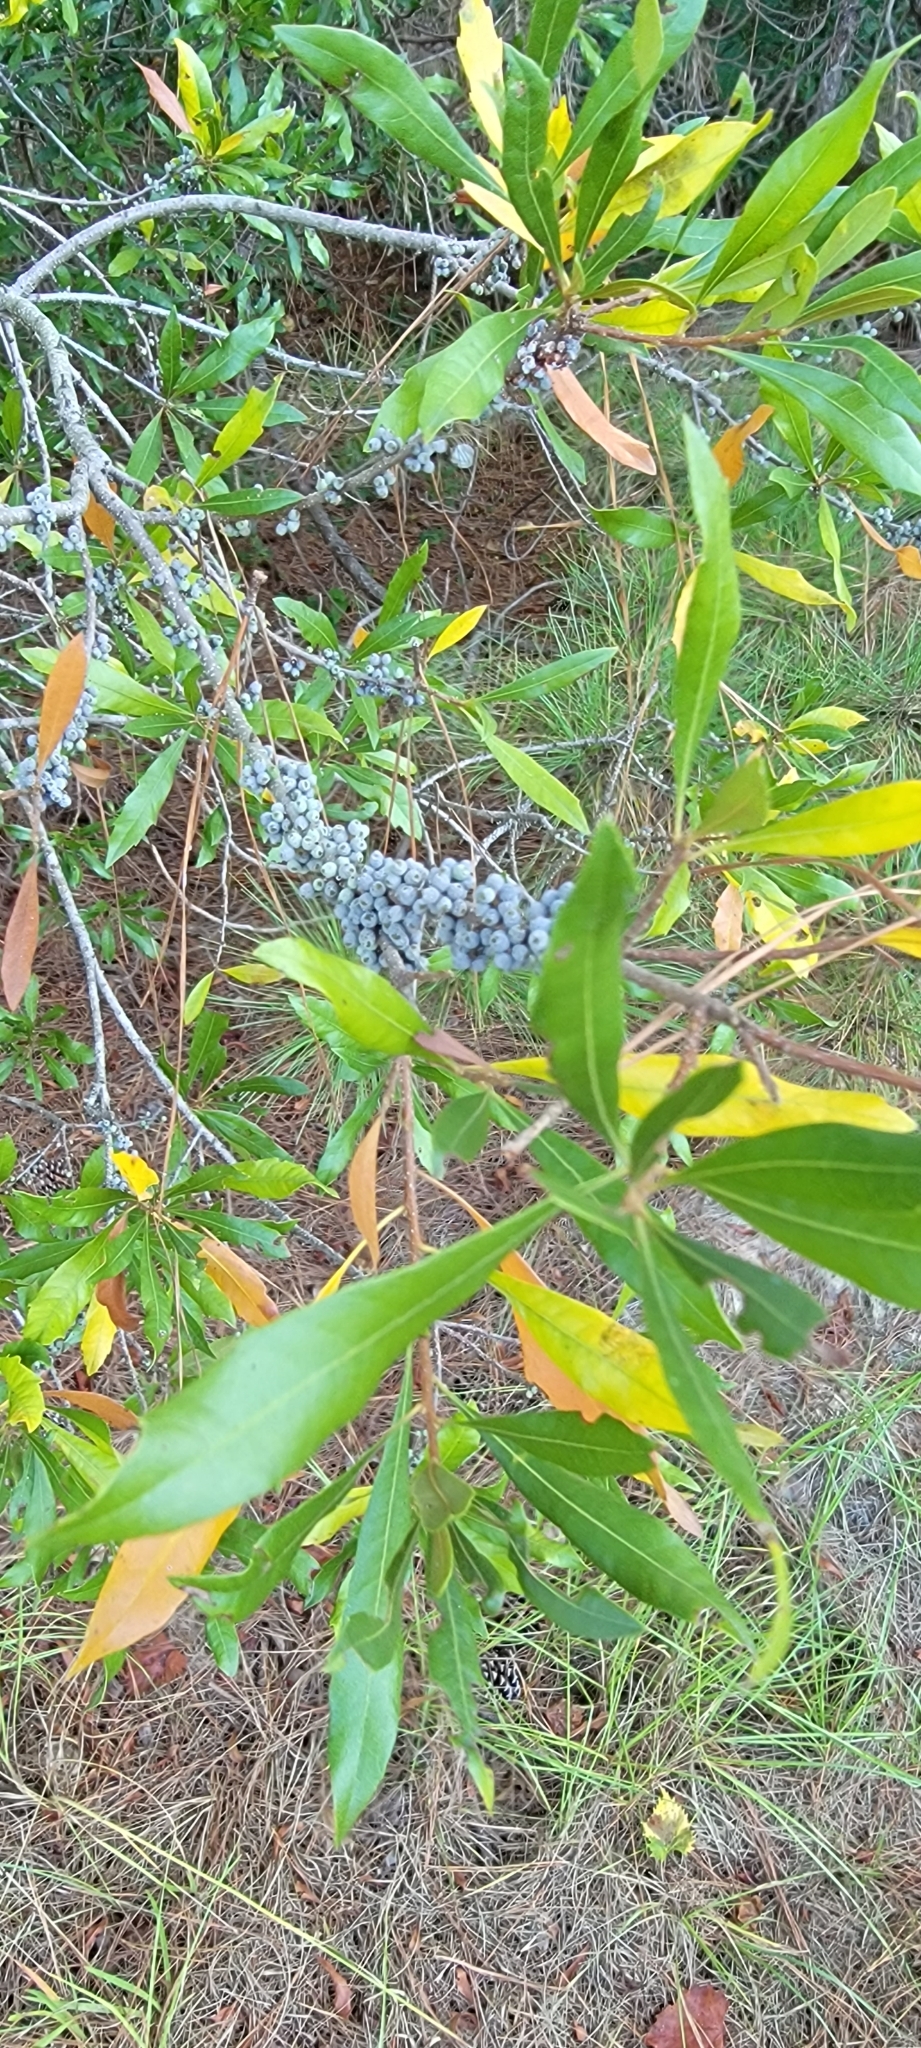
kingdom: Plantae
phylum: Tracheophyta
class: Magnoliopsida
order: Fagales
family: Myricaceae
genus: Morella
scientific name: Morella cerifera
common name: Wax myrtle
